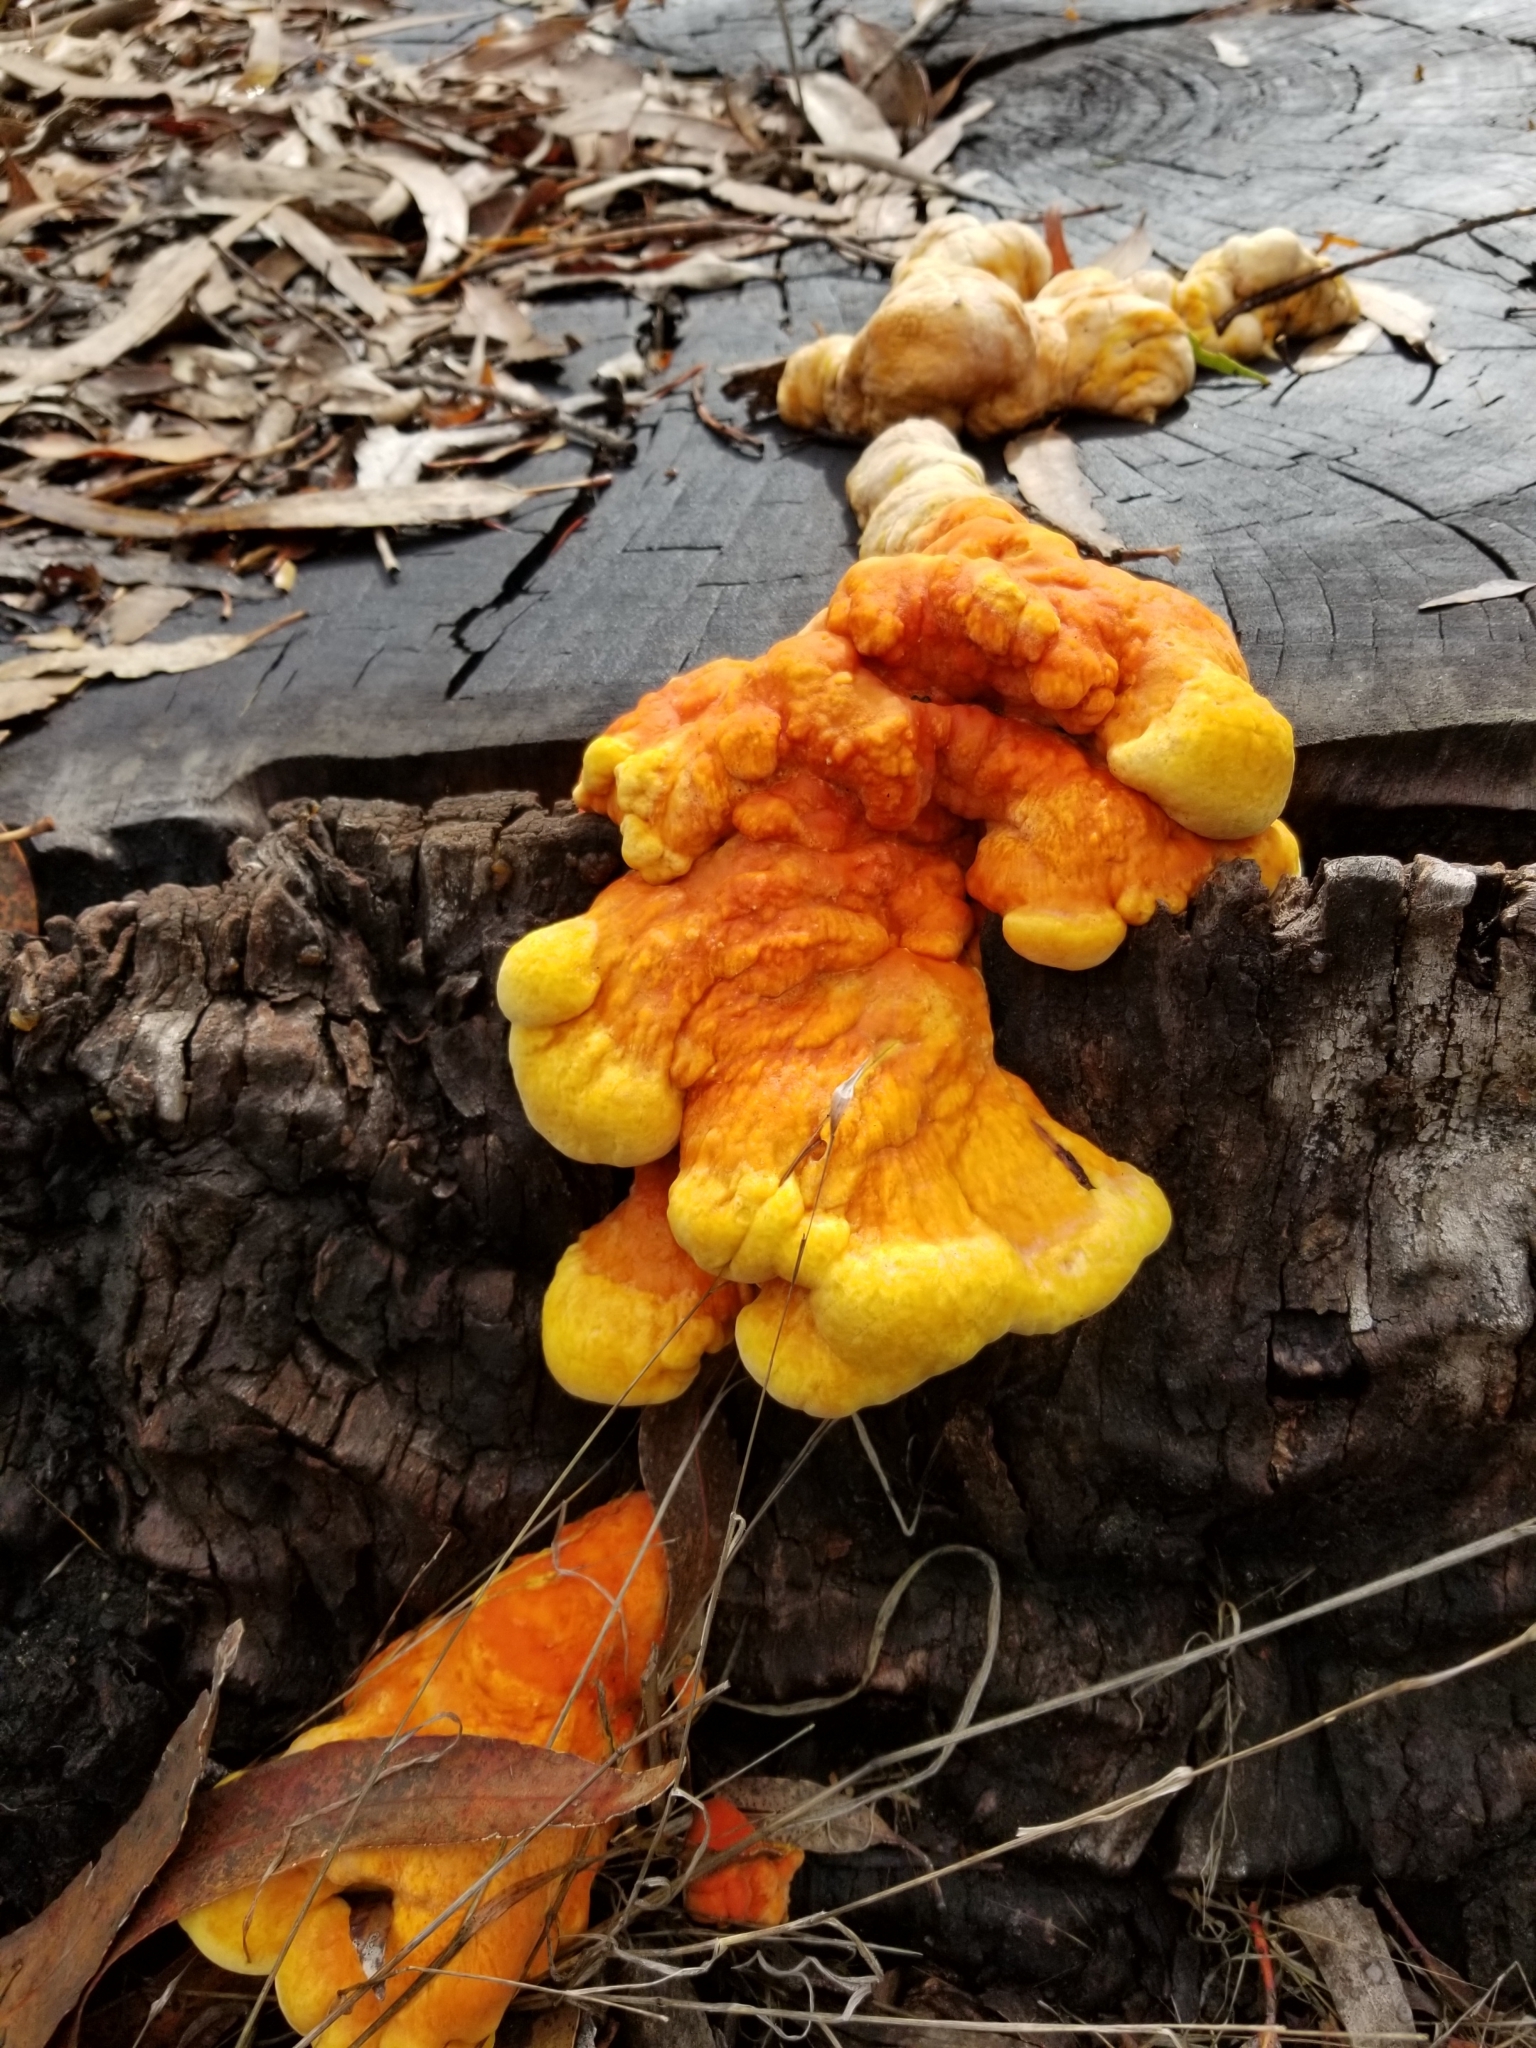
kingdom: Fungi
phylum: Basidiomycota
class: Agaricomycetes
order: Polyporales
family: Laetiporaceae
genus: Laetiporus
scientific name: Laetiporus gilbertsonii
